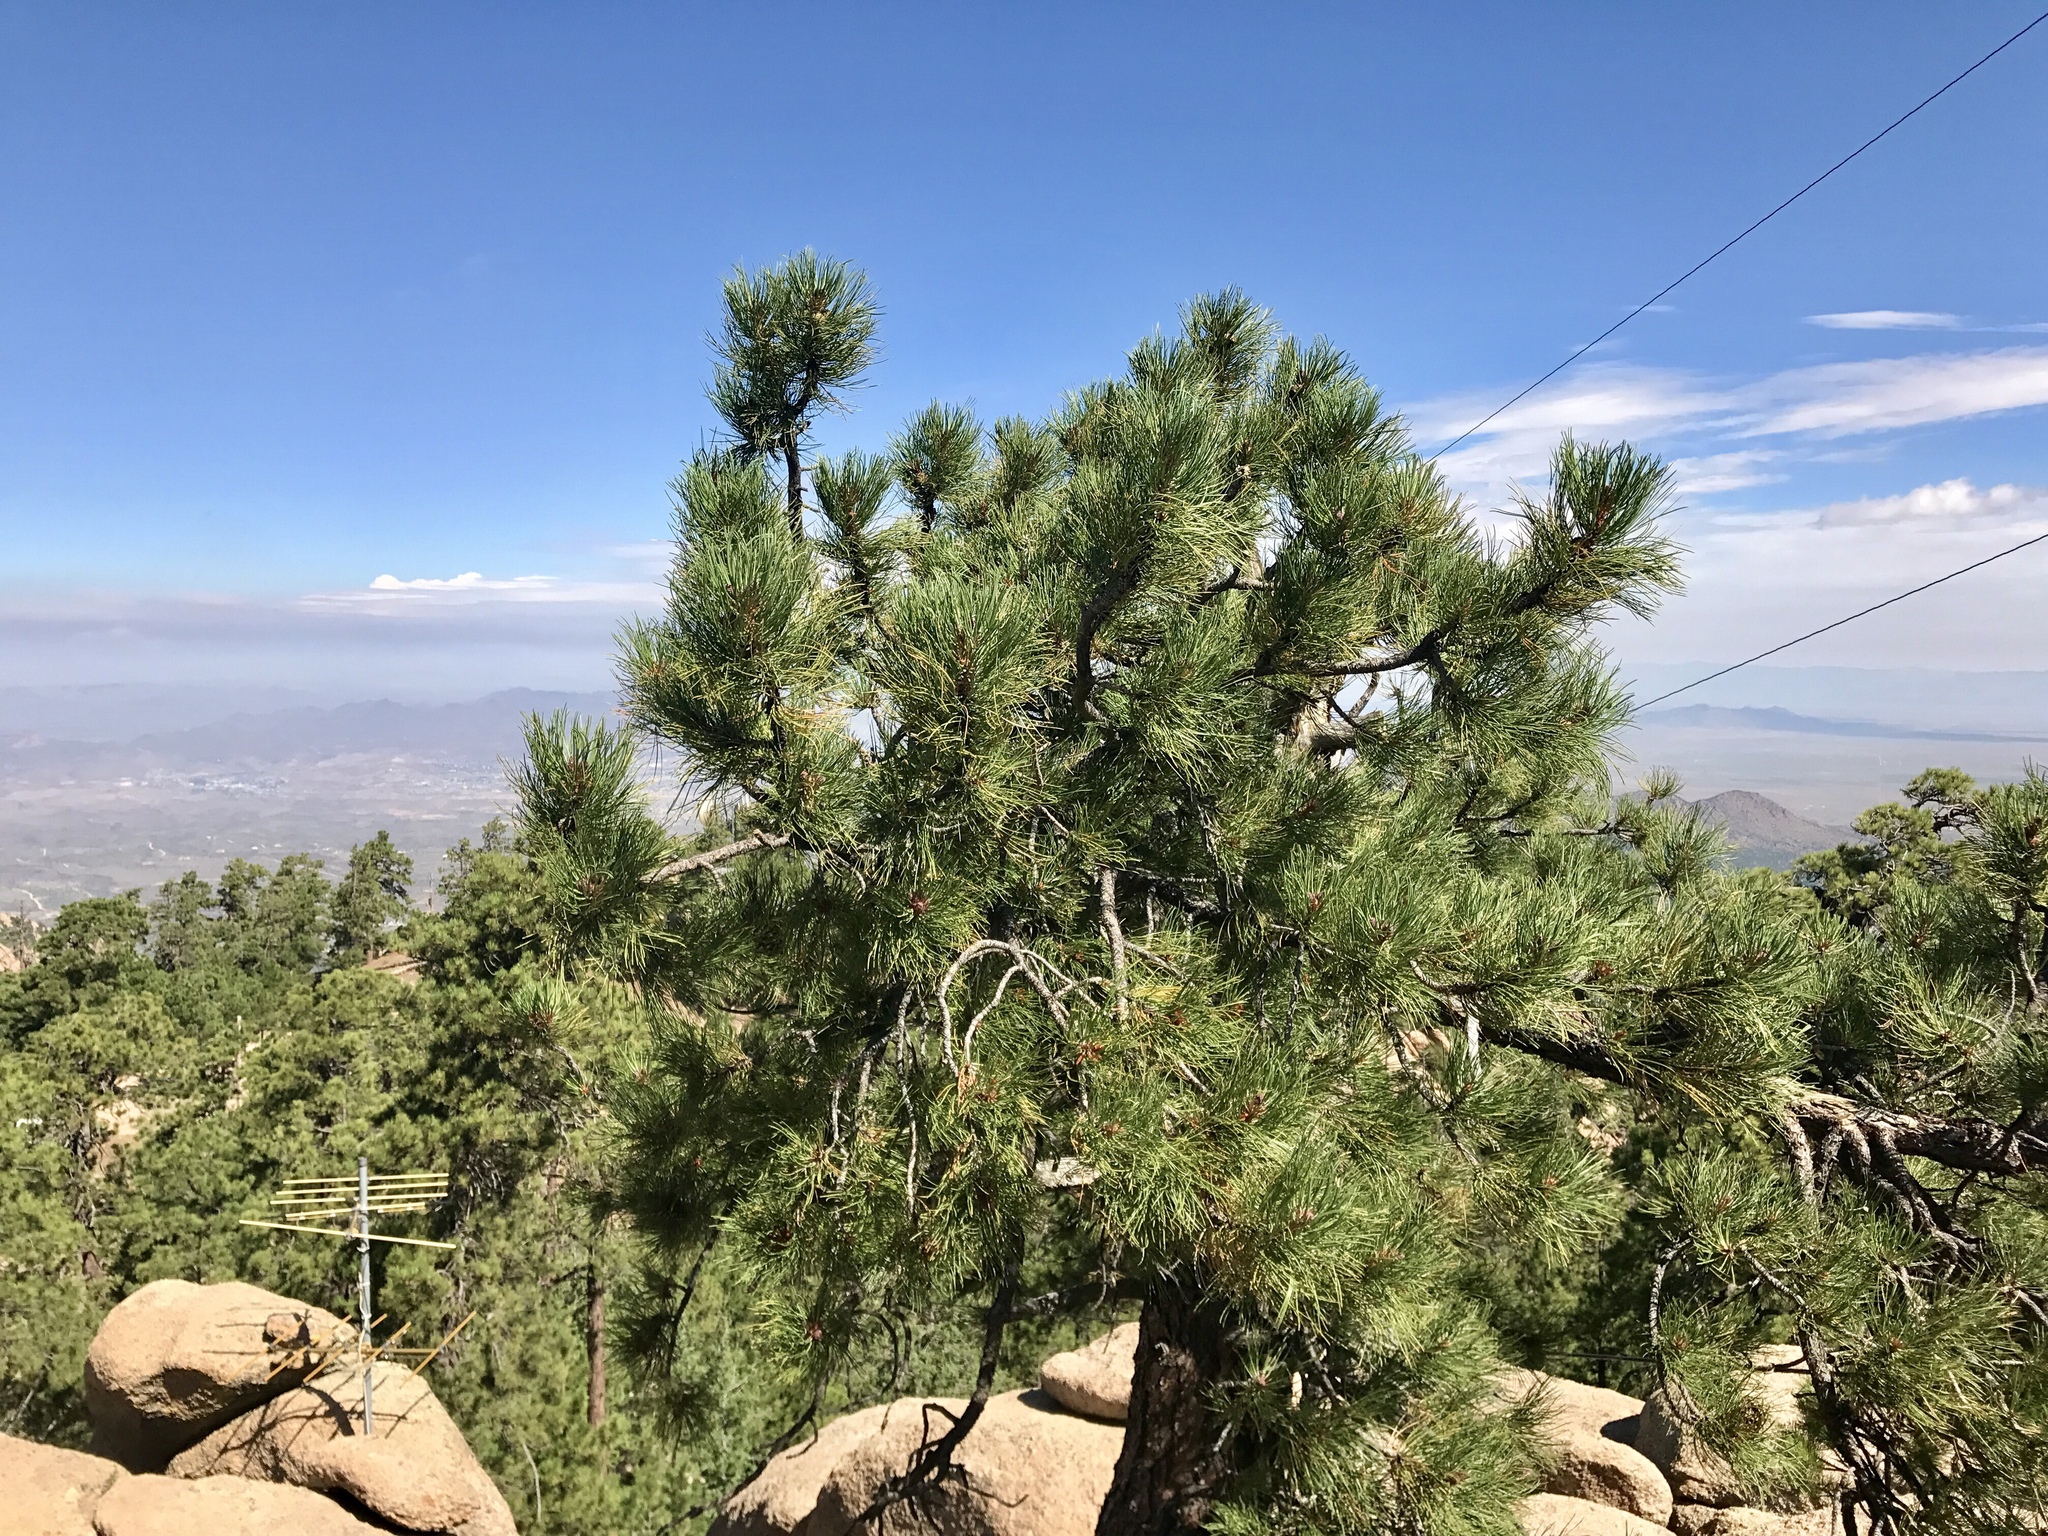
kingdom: Plantae
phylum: Tracheophyta
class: Pinopsida
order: Pinales
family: Pinaceae
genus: Pinus
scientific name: Pinus ponderosa
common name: Western yellow-pine
